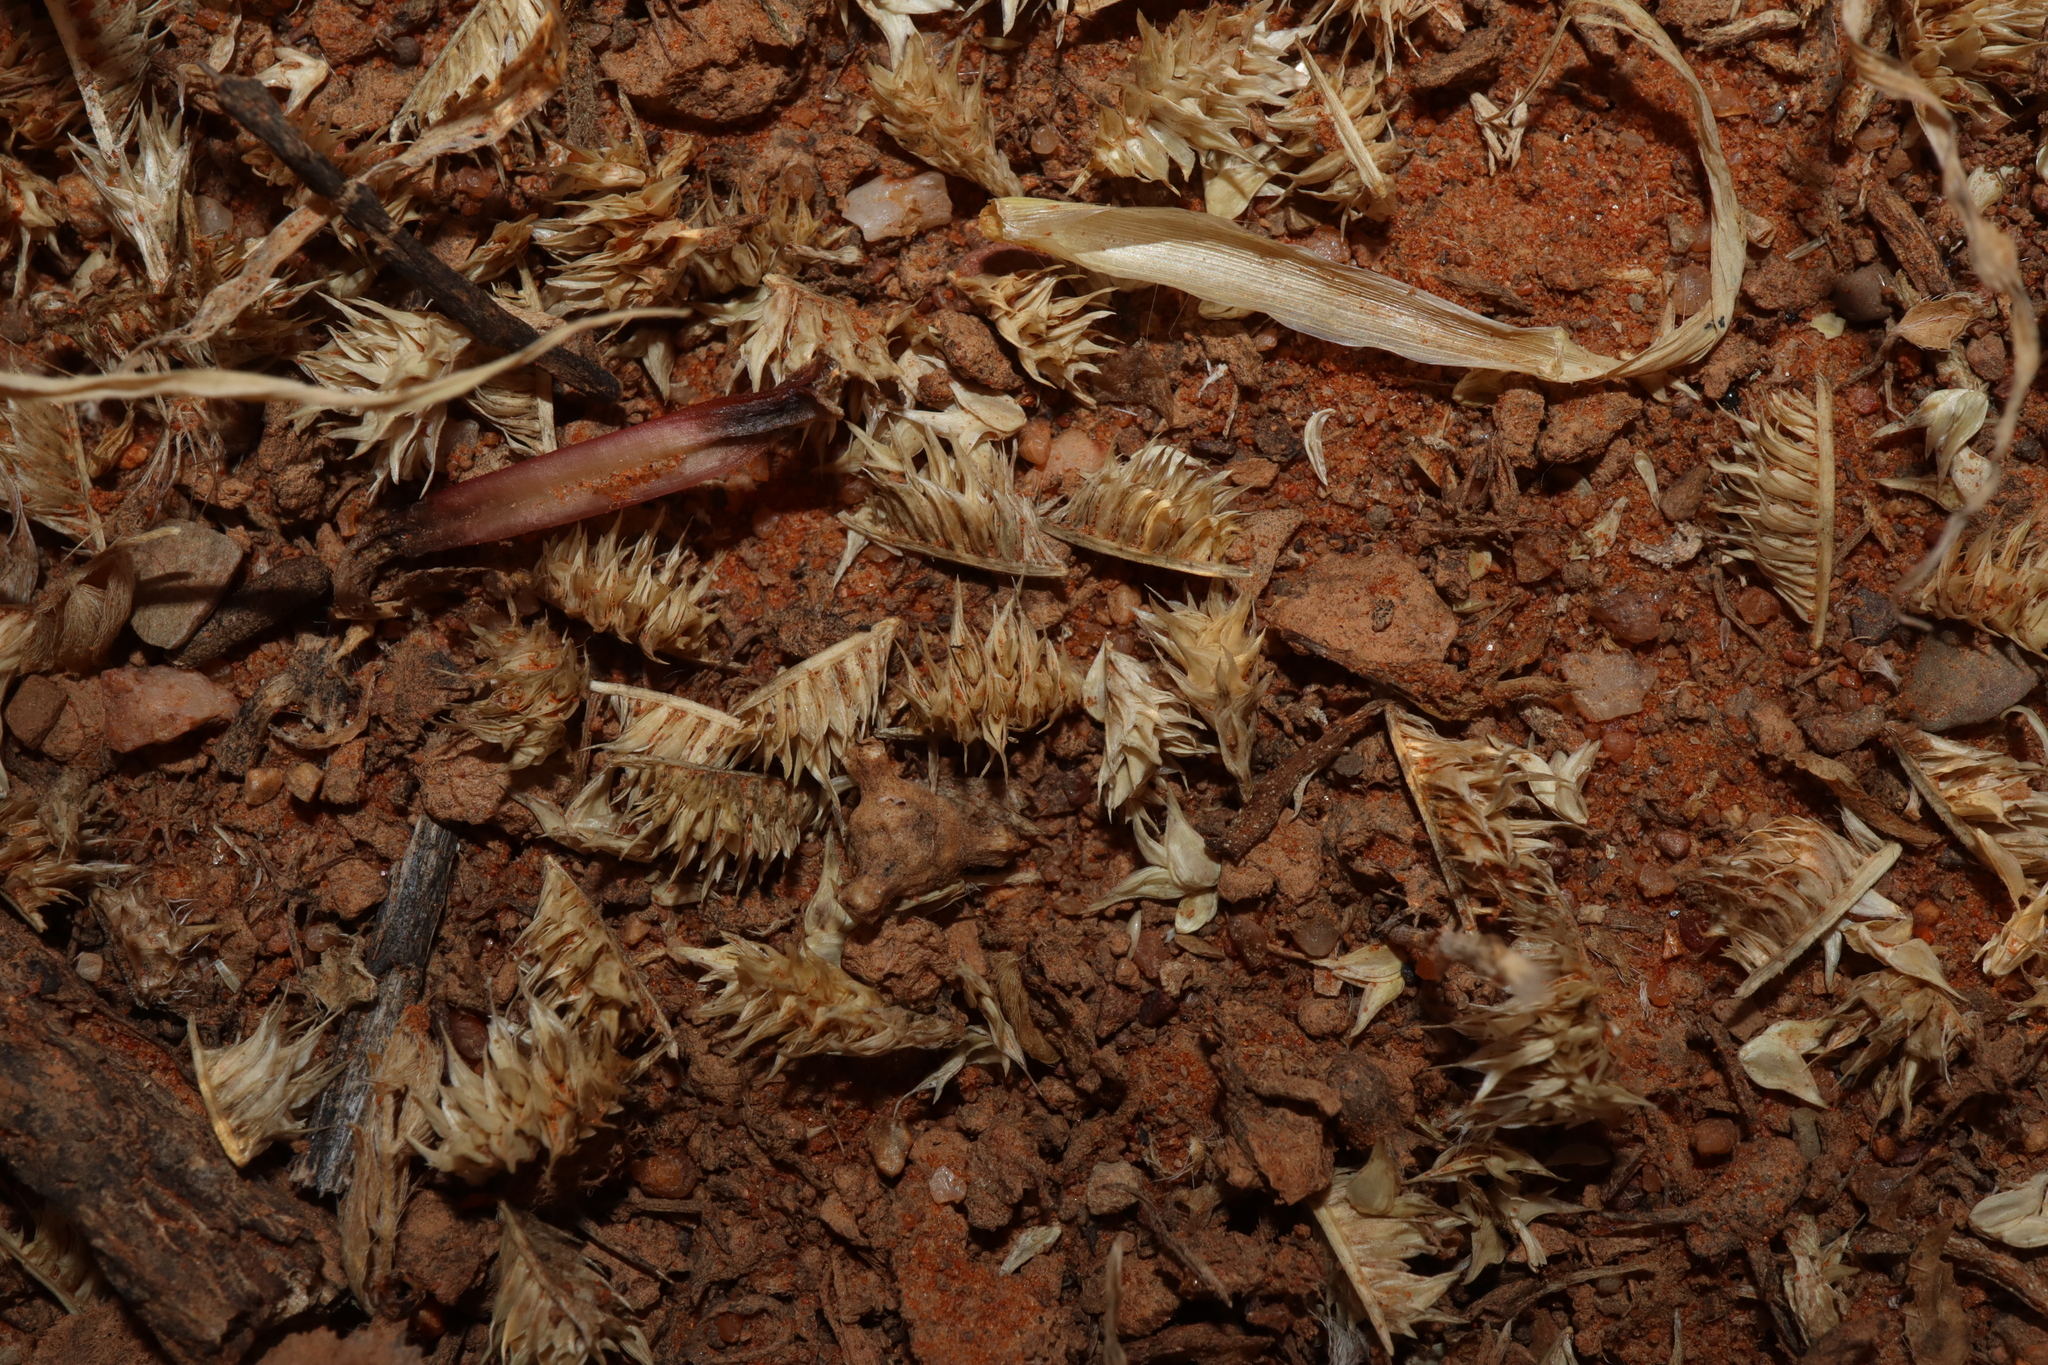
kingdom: Plantae
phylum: Tracheophyta
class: Liliopsida
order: Poales
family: Poaceae
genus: Dactyloctenium
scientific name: Dactyloctenium radulans
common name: Button-grass
